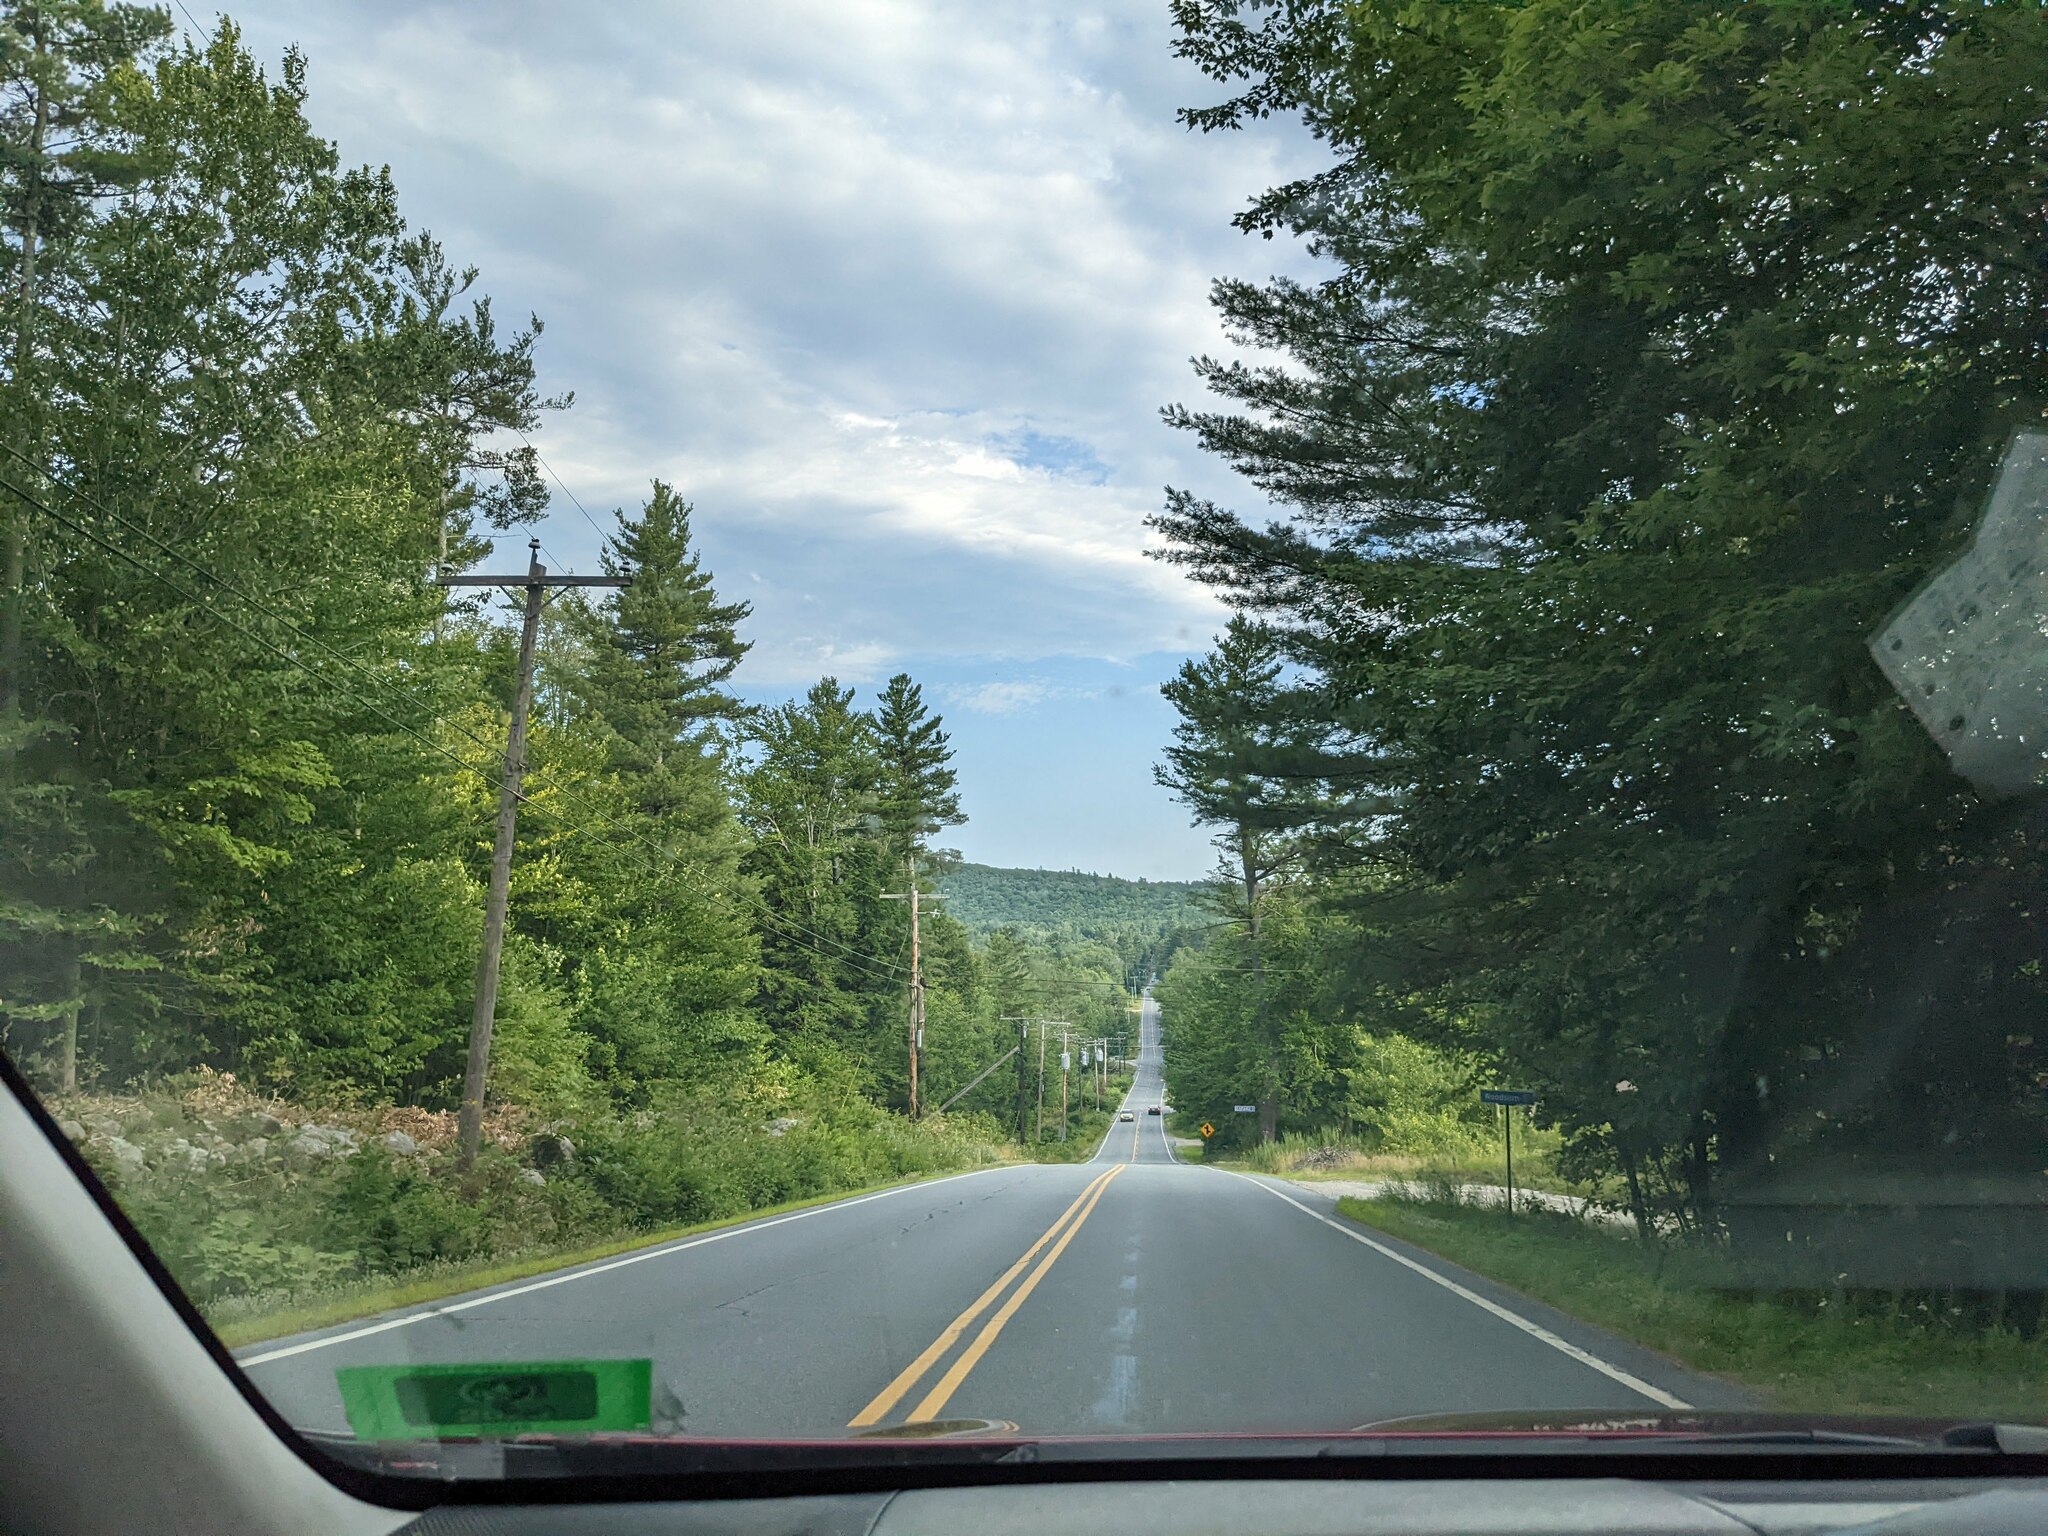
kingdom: Plantae
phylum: Tracheophyta
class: Pinopsida
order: Pinales
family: Pinaceae
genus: Pinus
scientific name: Pinus strobus
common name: Weymouth pine
